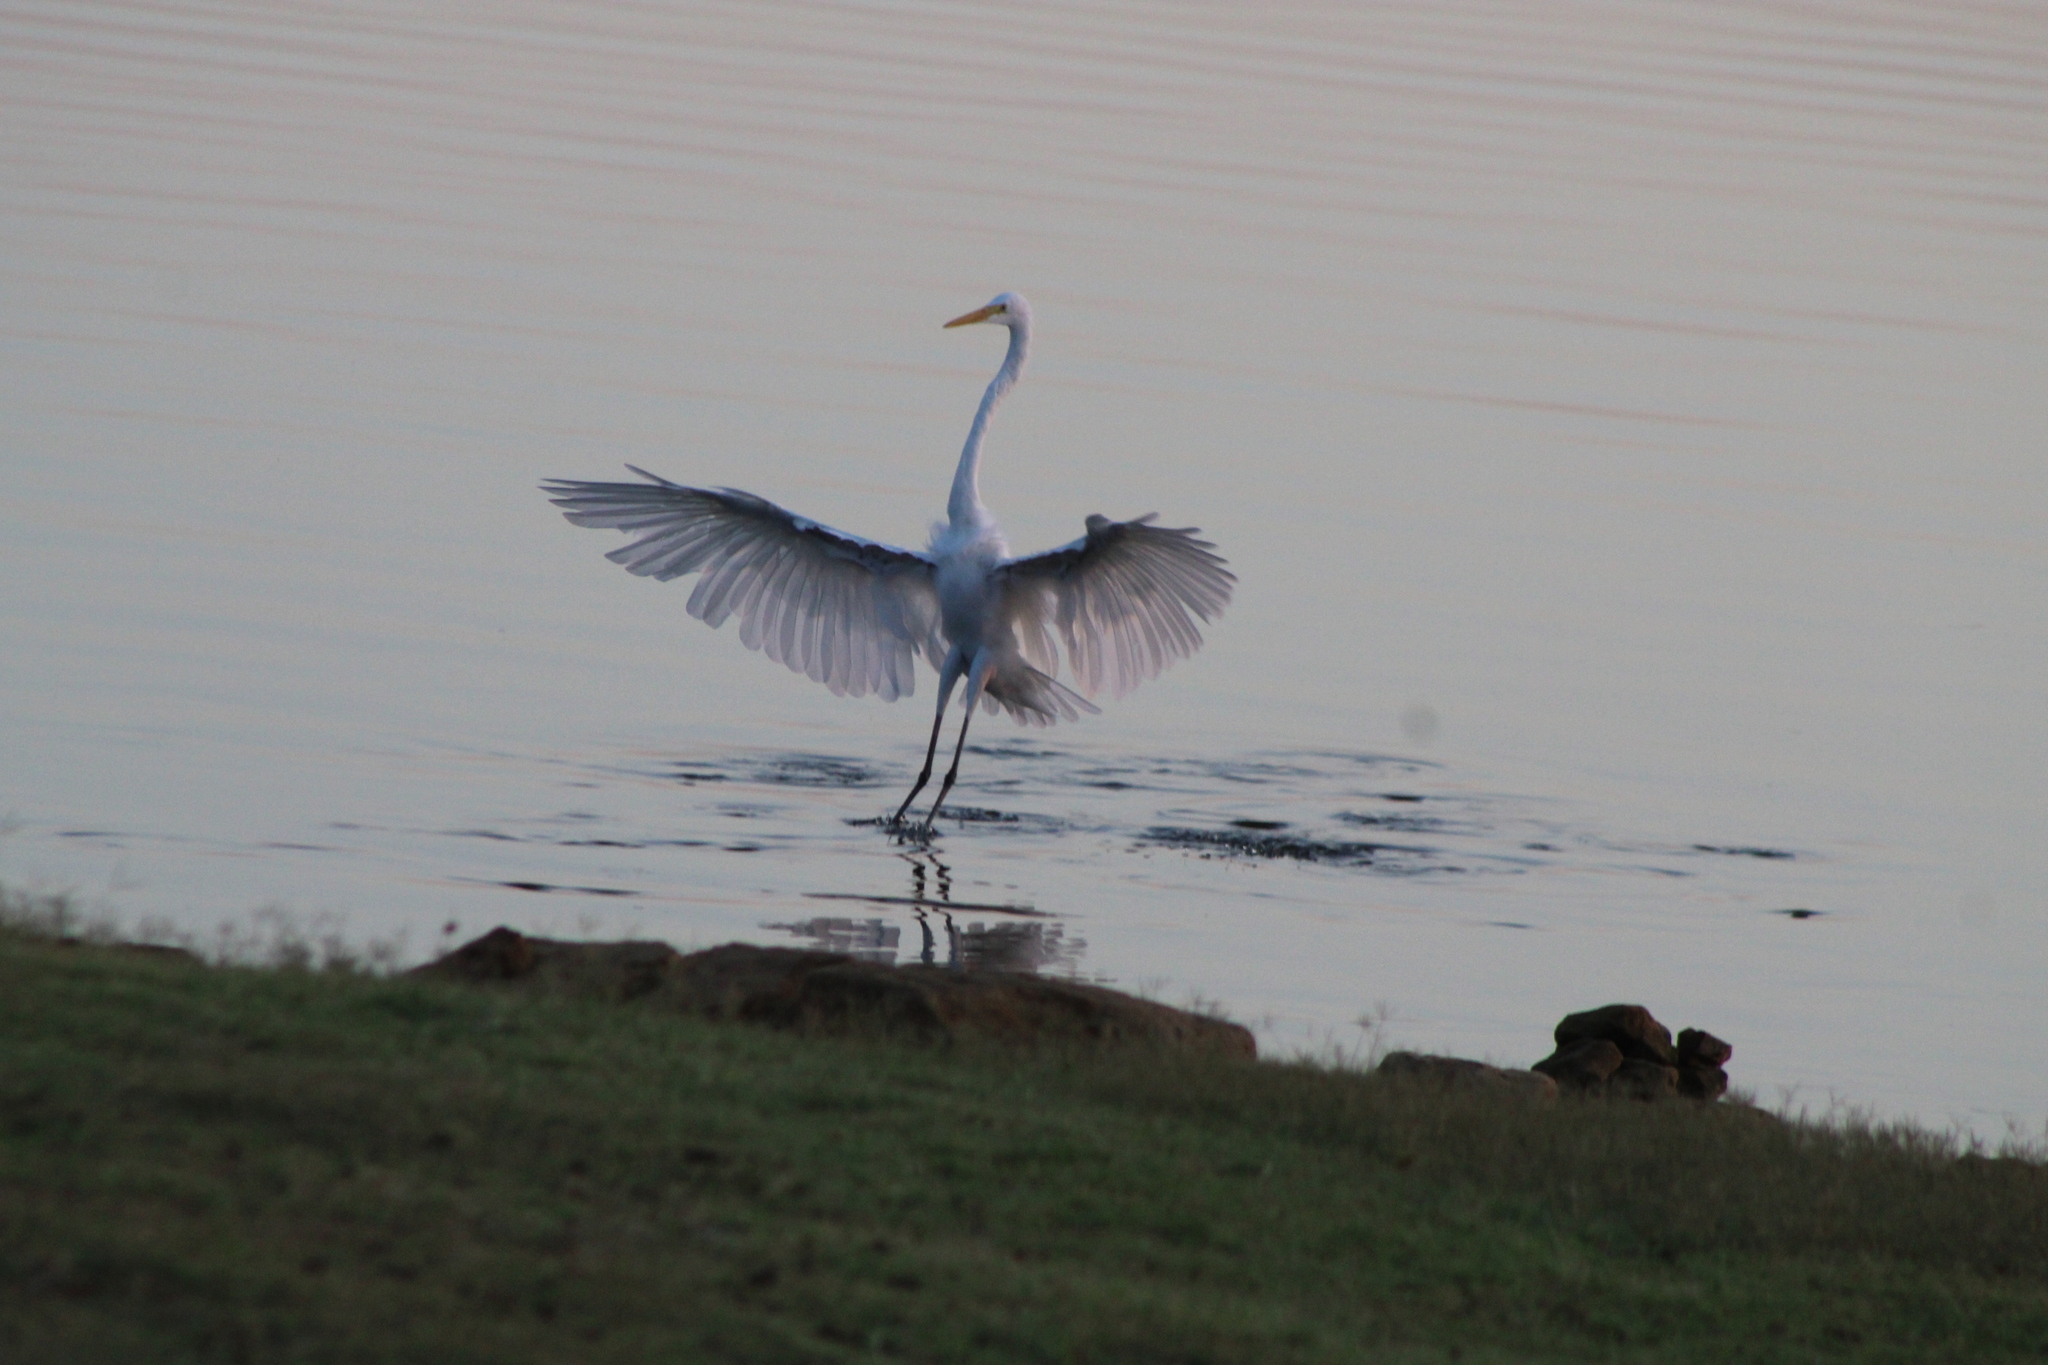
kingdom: Animalia
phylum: Chordata
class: Aves
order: Pelecaniformes
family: Ardeidae
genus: Ardea
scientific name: Ardea alba
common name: Great egret
